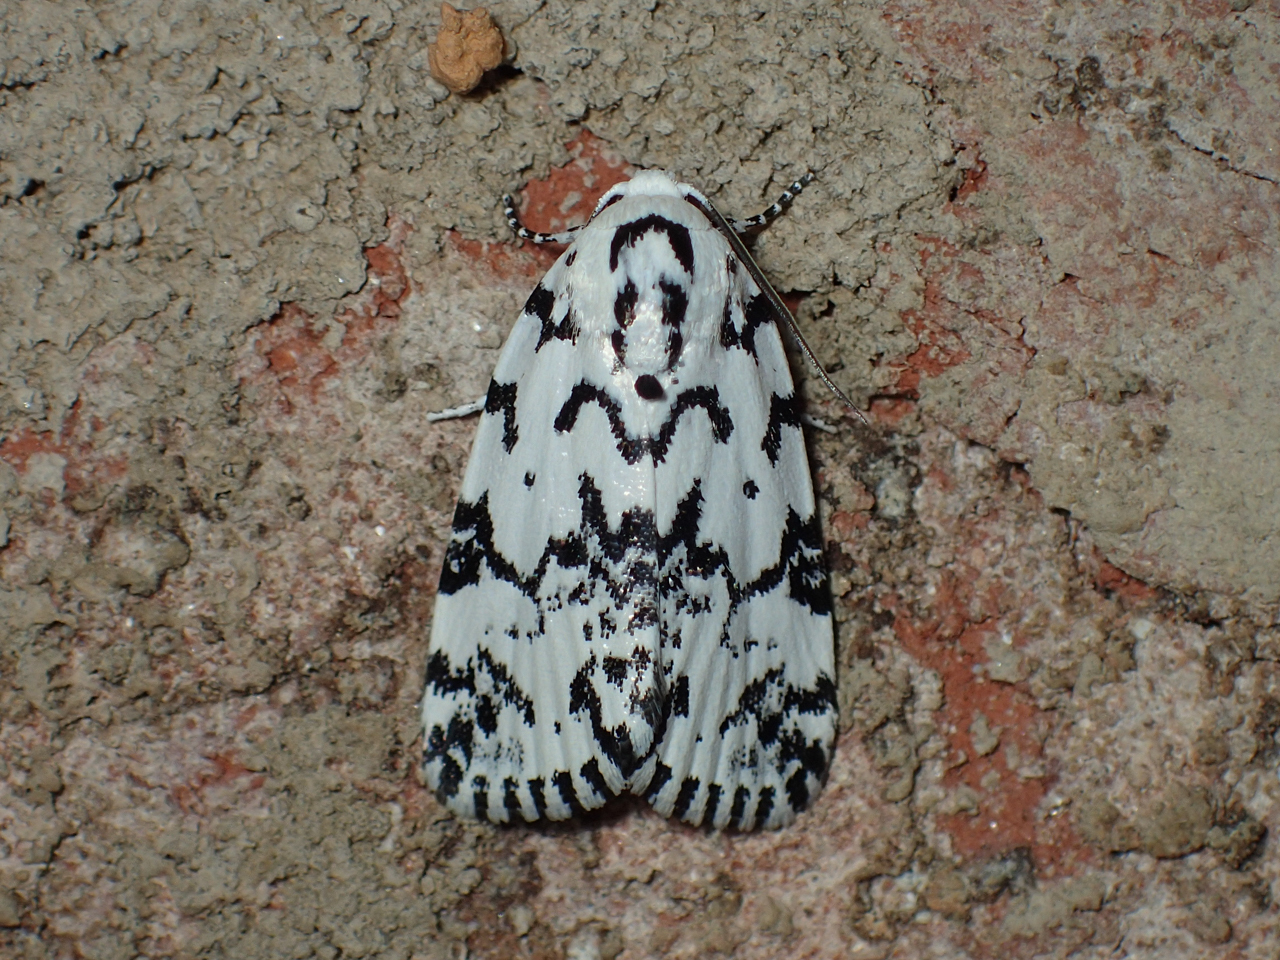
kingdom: Animalia
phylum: Arthropoda
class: Insecta
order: Lepidoptera
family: Noctuidae
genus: Polygrammate
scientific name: Polygrammate hebraeicum
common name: Hebrew moth
